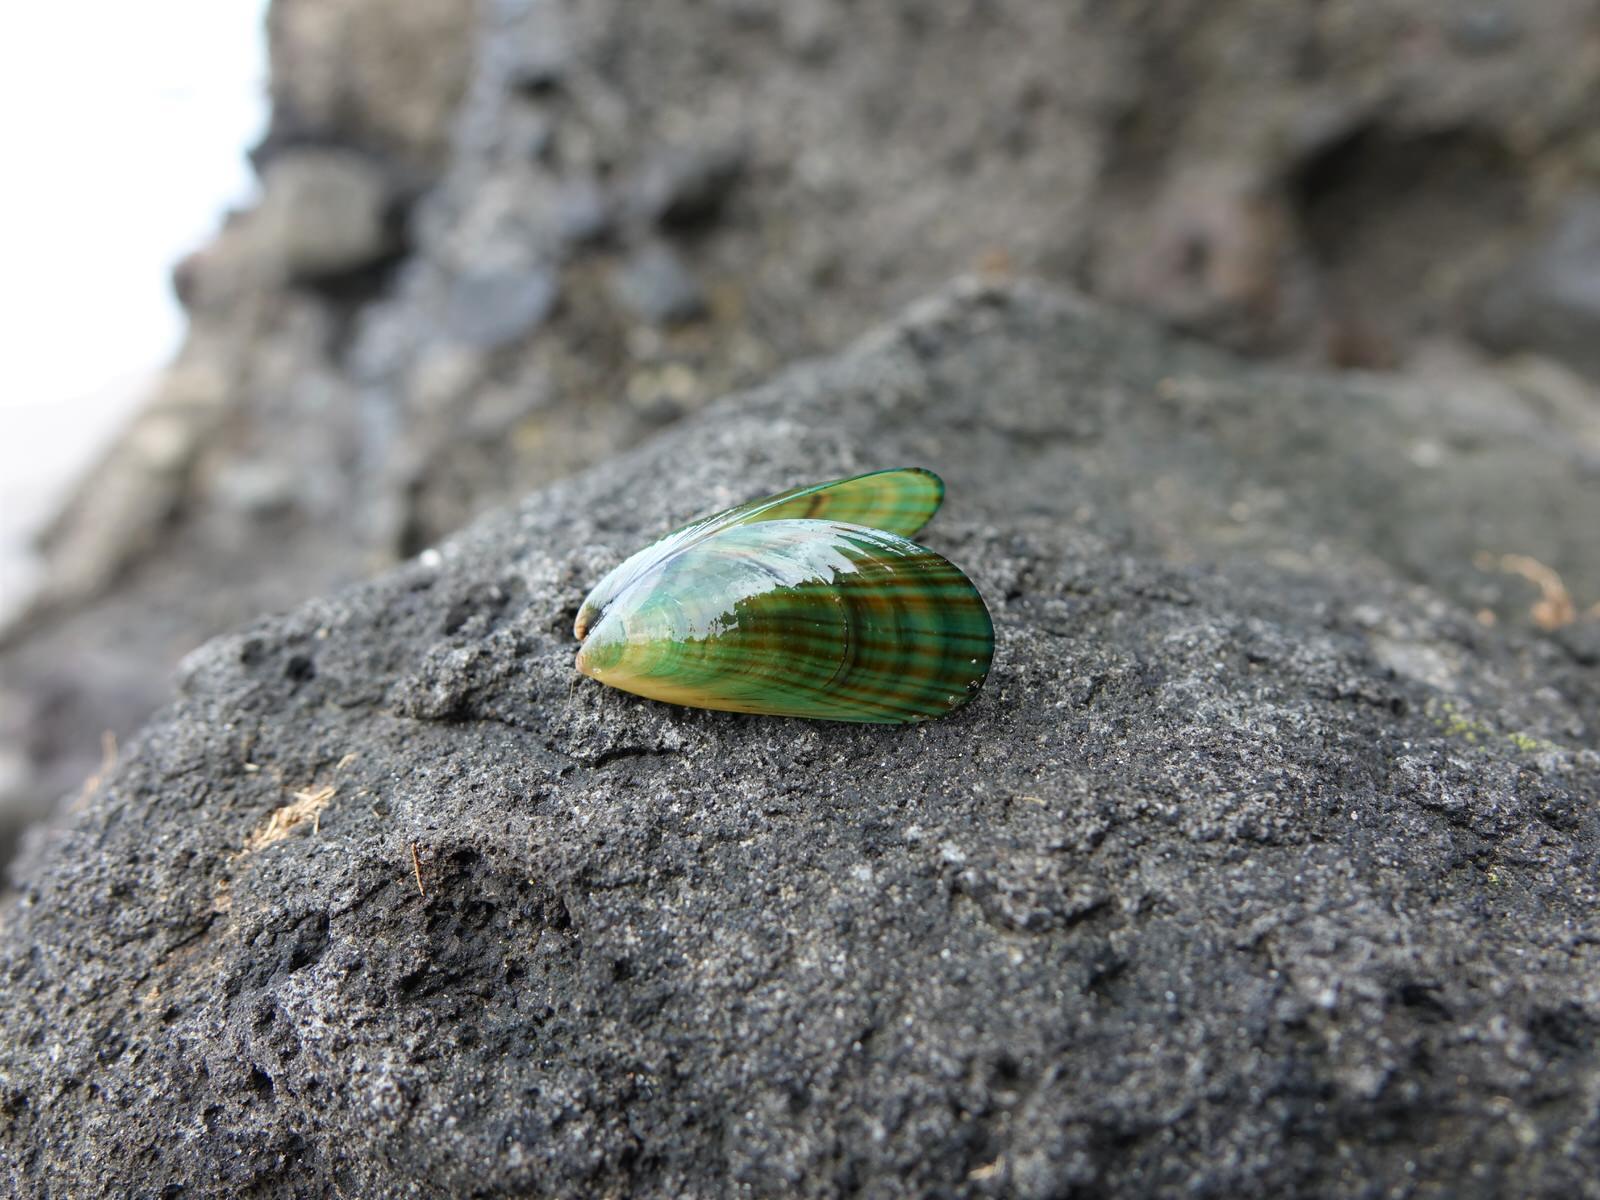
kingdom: Animalia
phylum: Mollusca
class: Bivalvia
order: Mytilida
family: Mytilidae
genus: Perna
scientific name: Perna canaliculus
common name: New zealand greenshelltm
